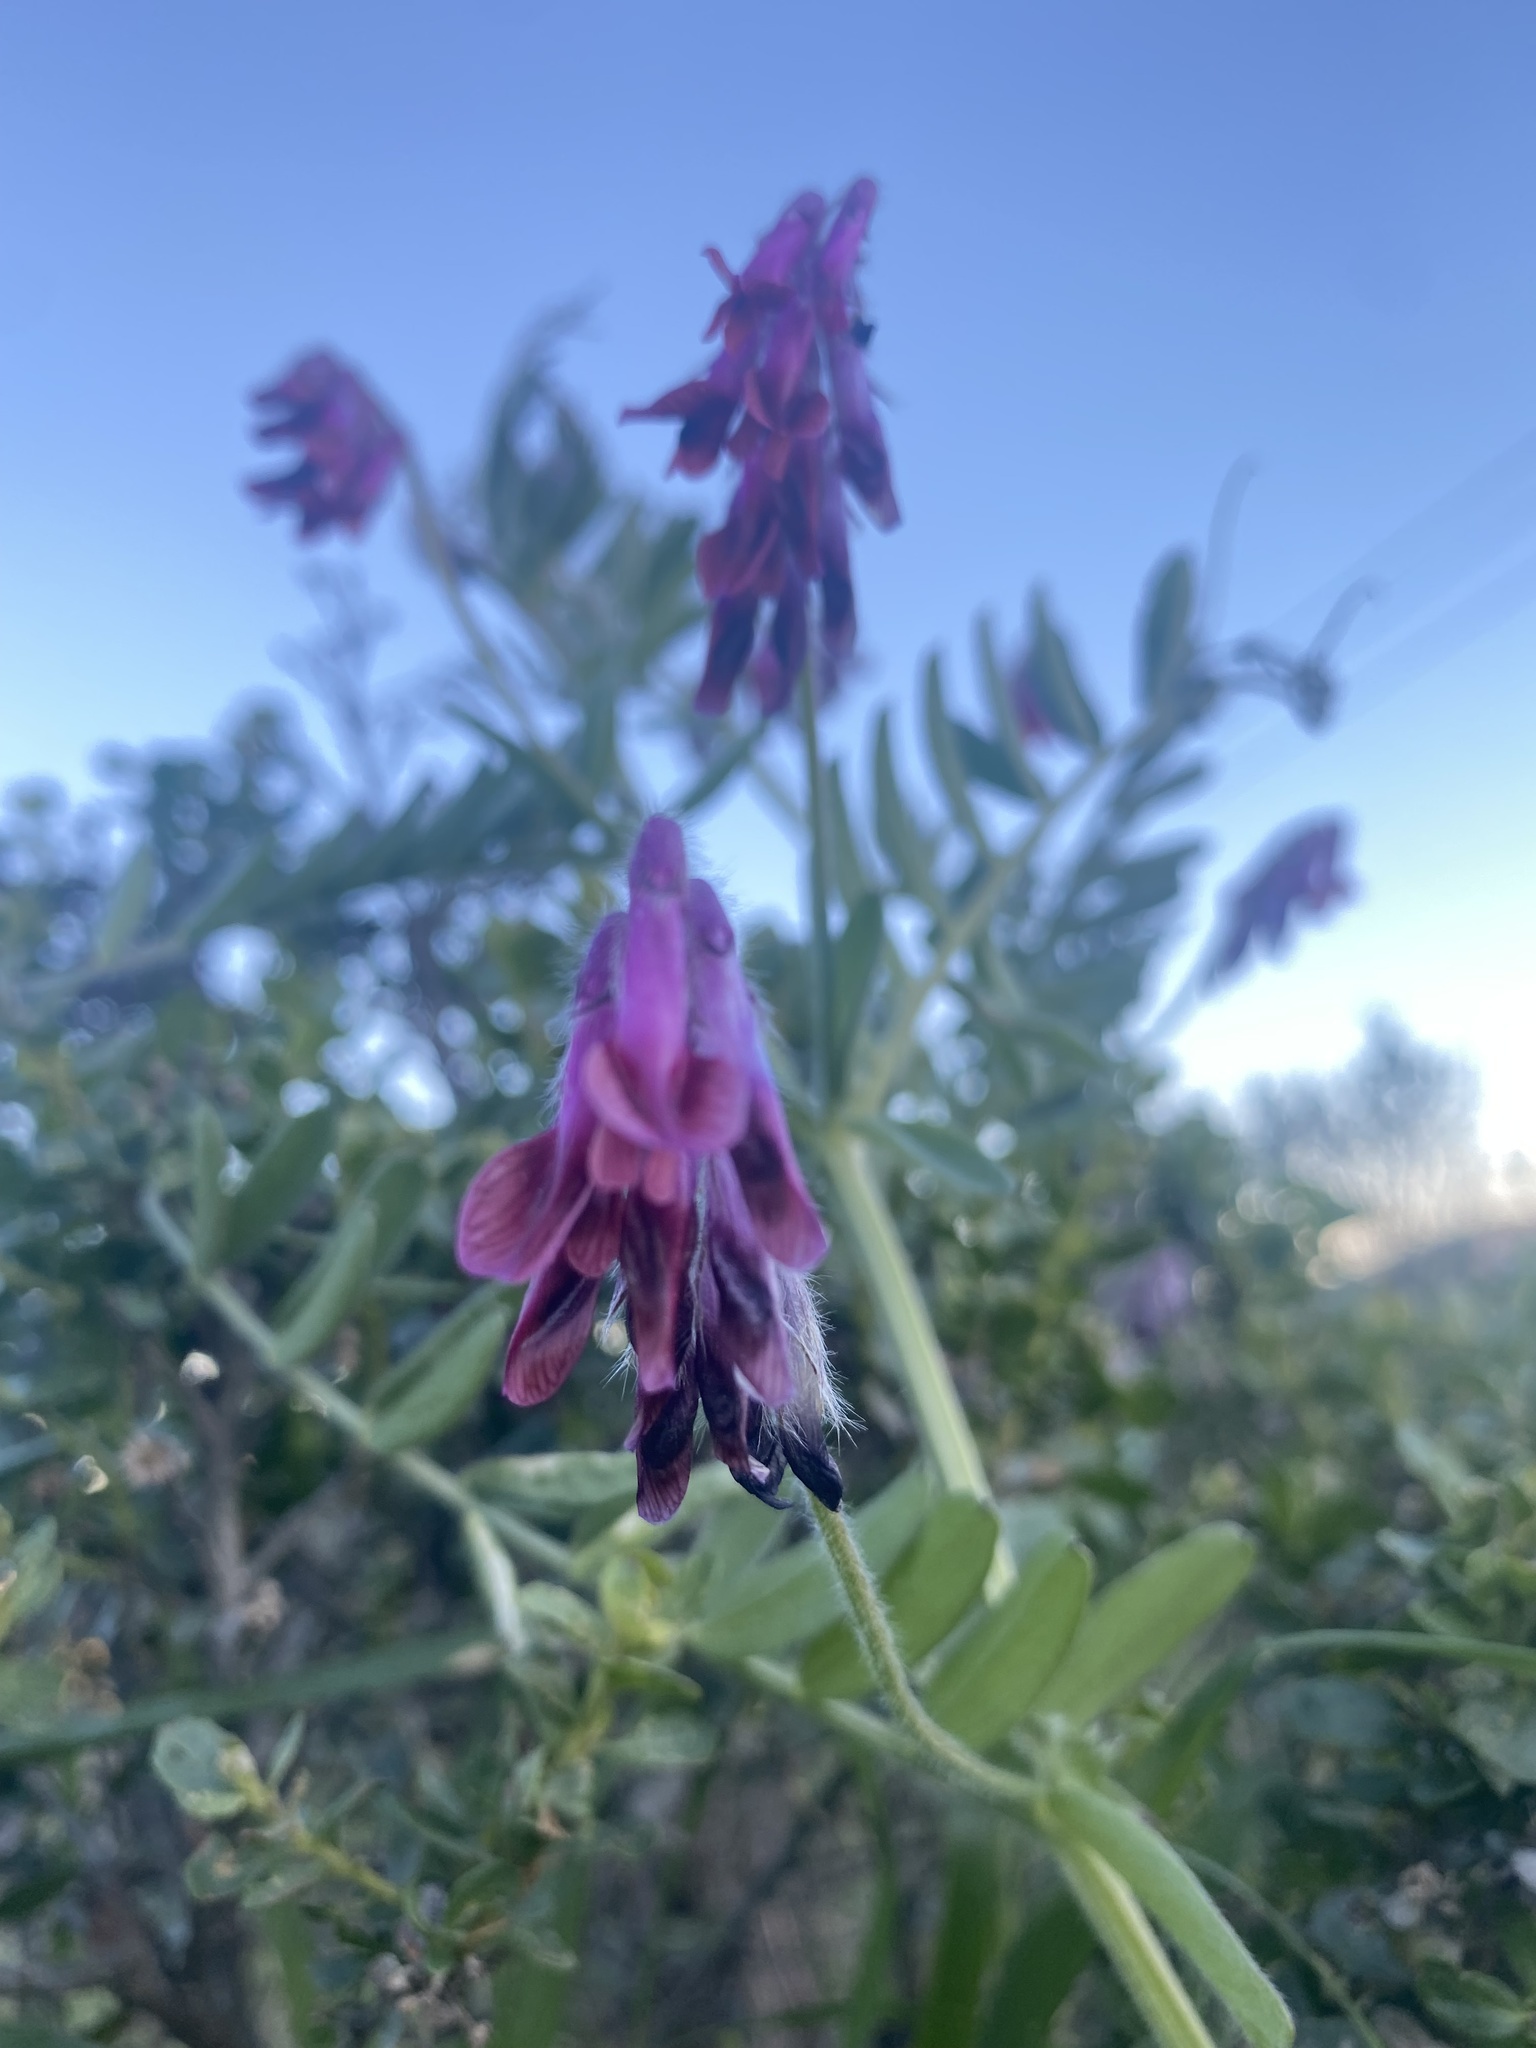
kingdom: Plantae
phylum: Tracheophyta
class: Magnoliopsida
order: Fabales
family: Fabaceae
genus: Vicia
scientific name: Vicia benghalensis
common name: Purple vetch
